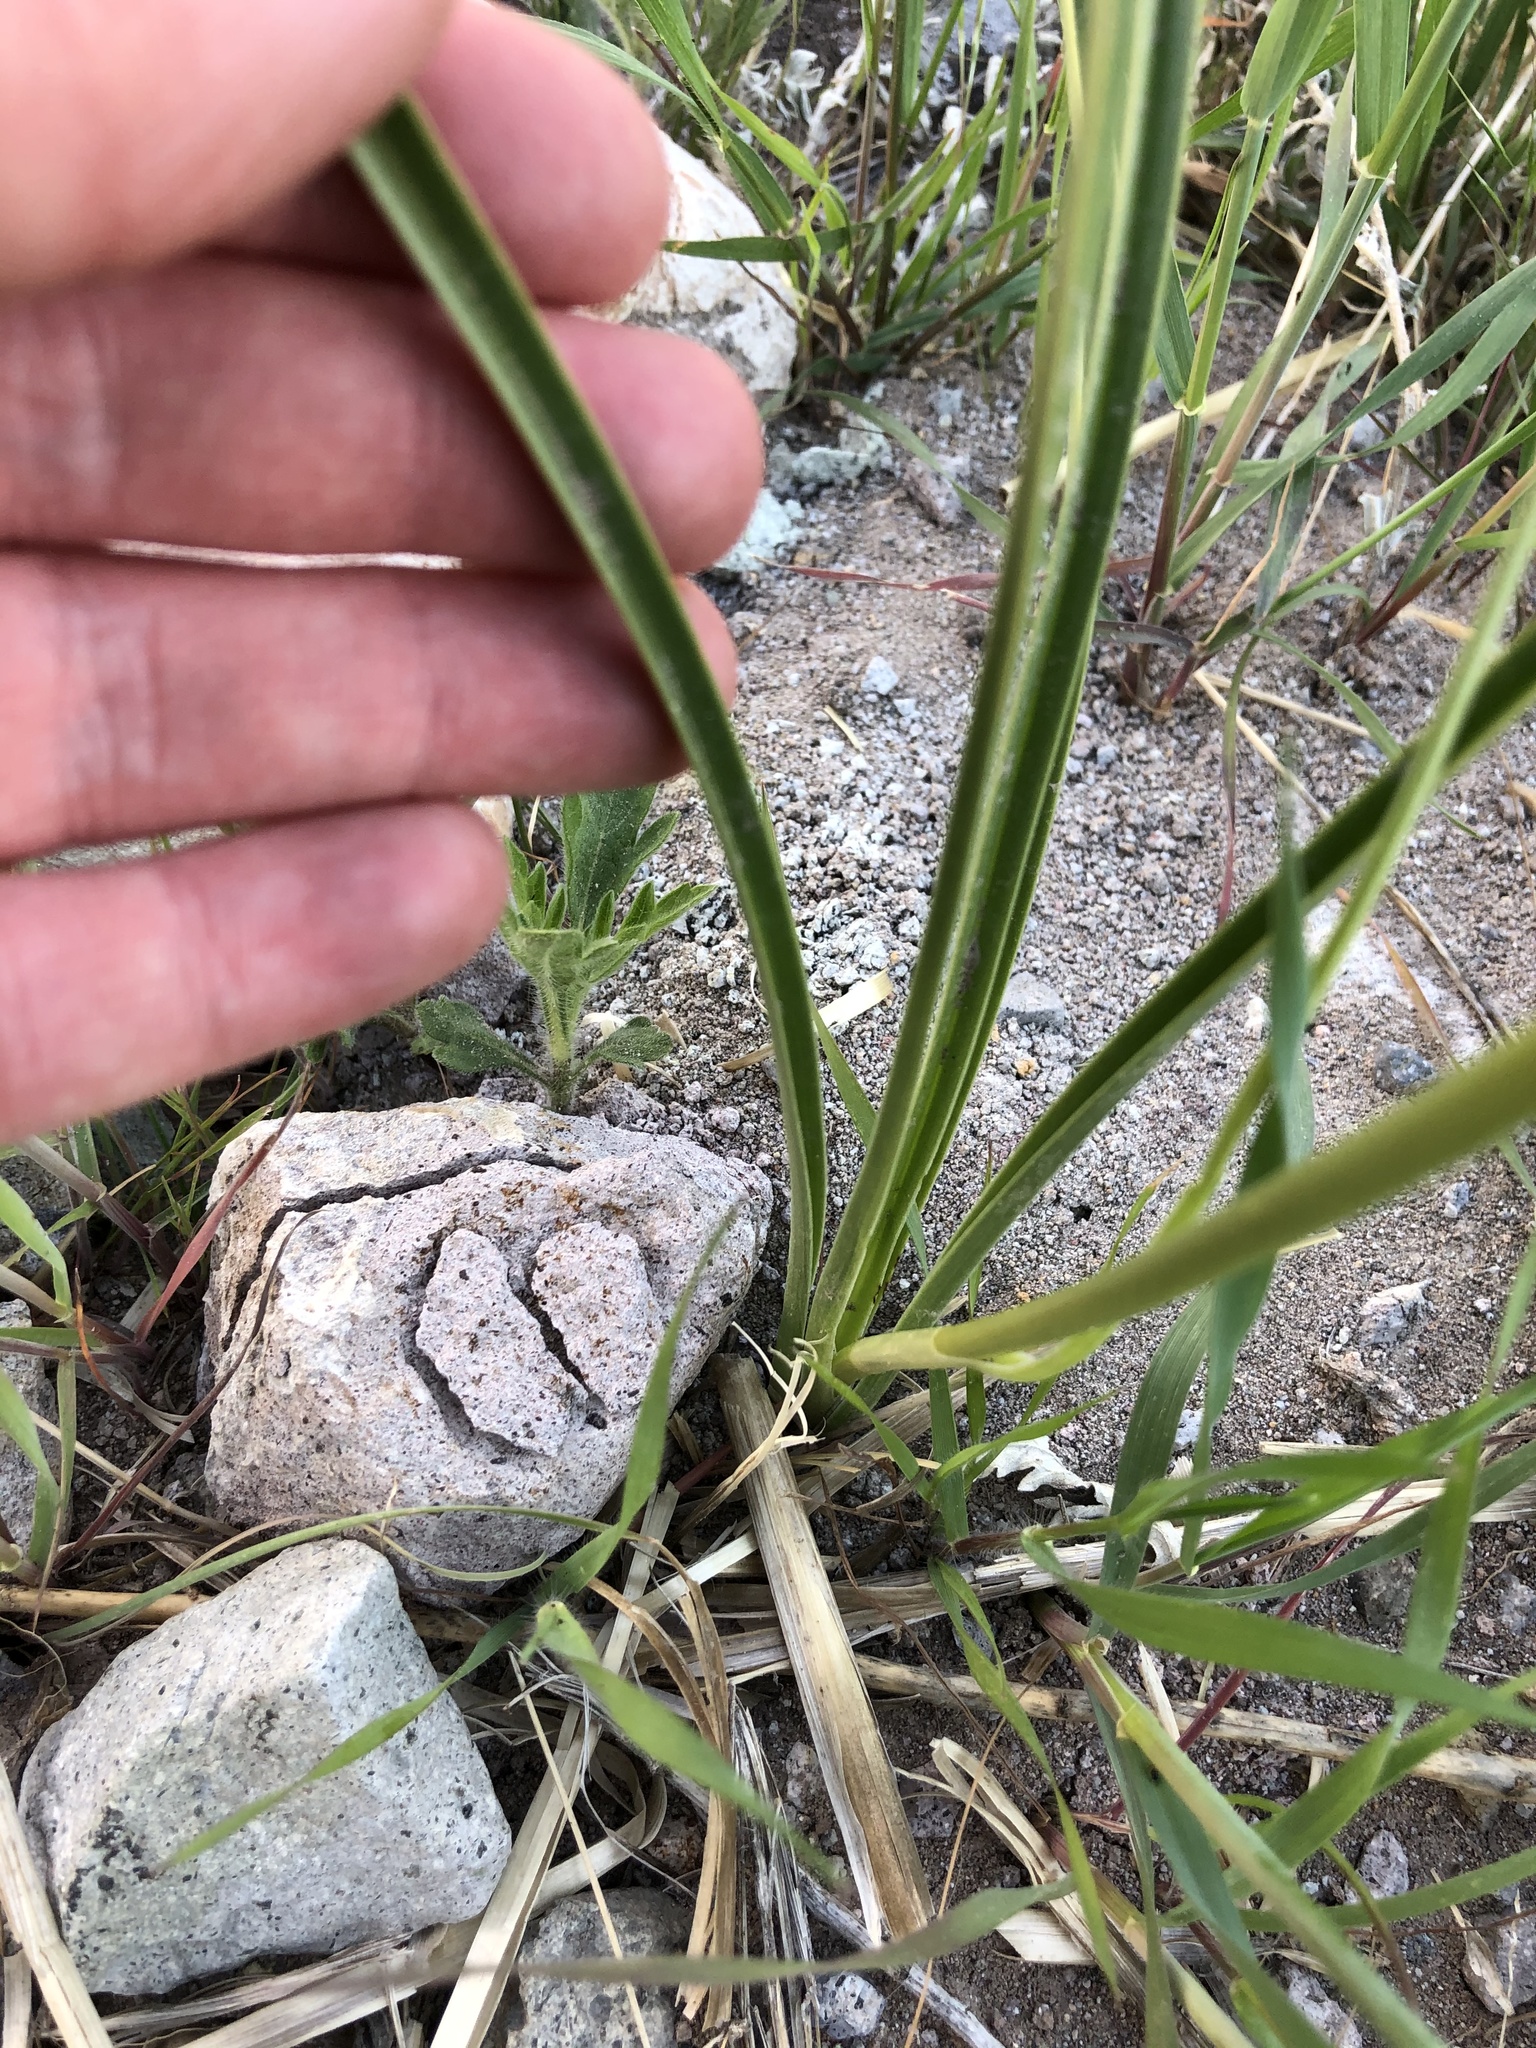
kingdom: Plantae
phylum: Tracheophyta
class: Liliopsida
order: Liliales
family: Melanthiaceae
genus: Toxicoscordion
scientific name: Toxicoscordion paniculatum
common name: Foothill death camas
